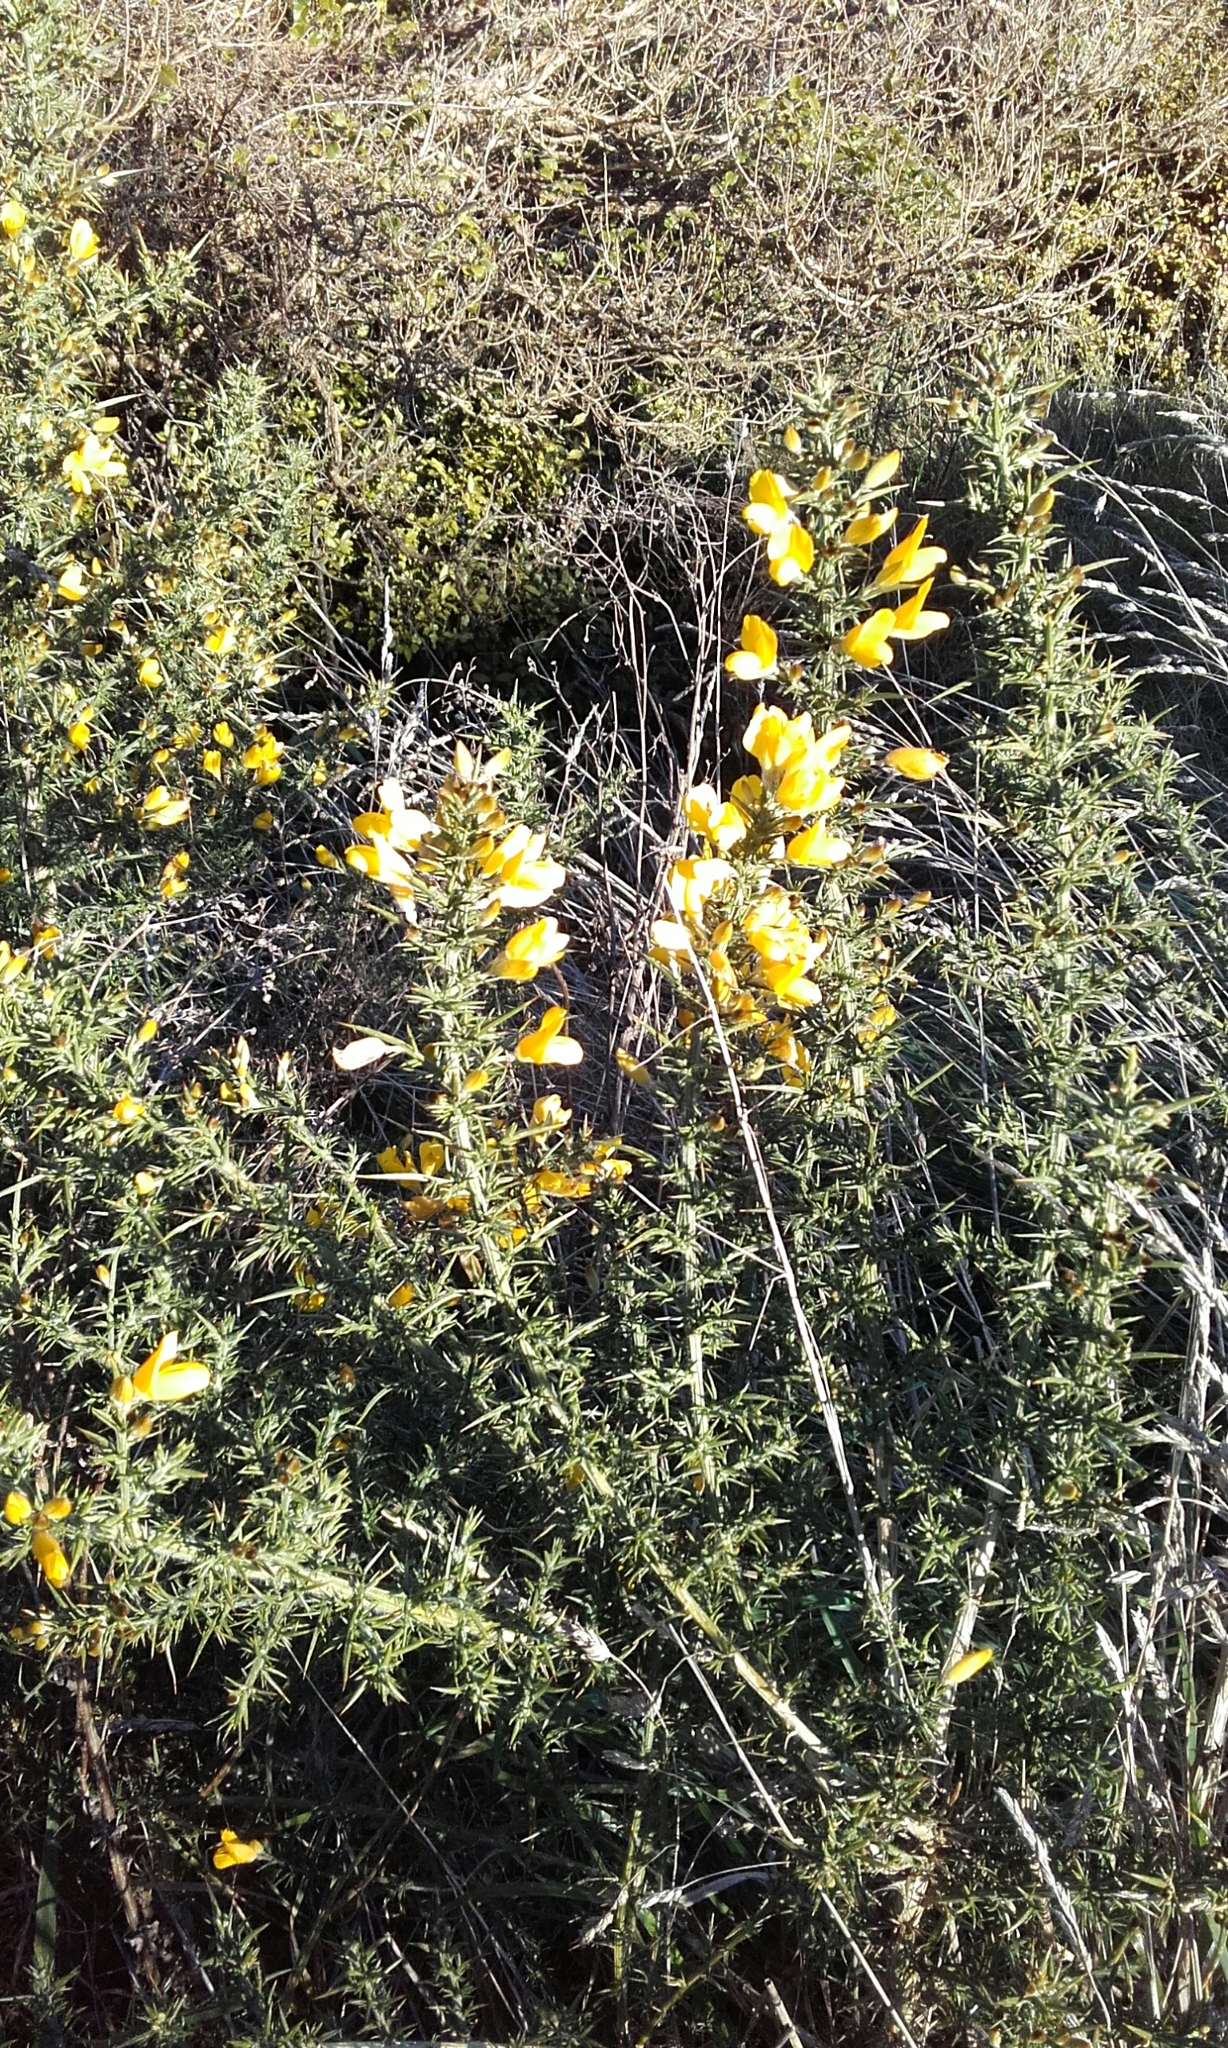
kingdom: Plantae
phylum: Tracheophyta
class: Magnoliopsida
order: Fabales
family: Fabaceae
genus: Ulex
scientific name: Ulex europaeus
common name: Common gorse
